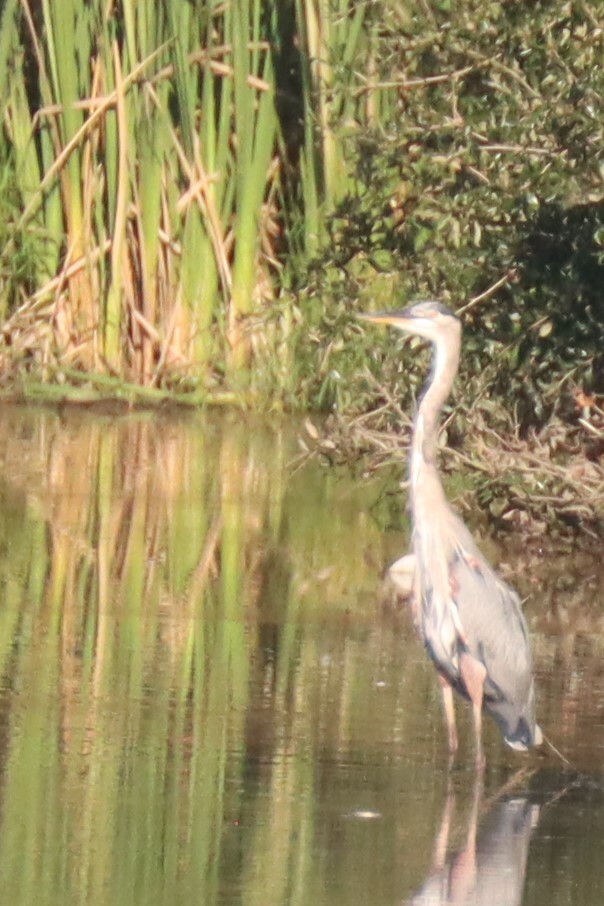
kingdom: Animalia
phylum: Chordata
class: Aves
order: Pelecaniformes
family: Ardeidae
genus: Ardea
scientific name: Ardea herodias
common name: Great blue heron
